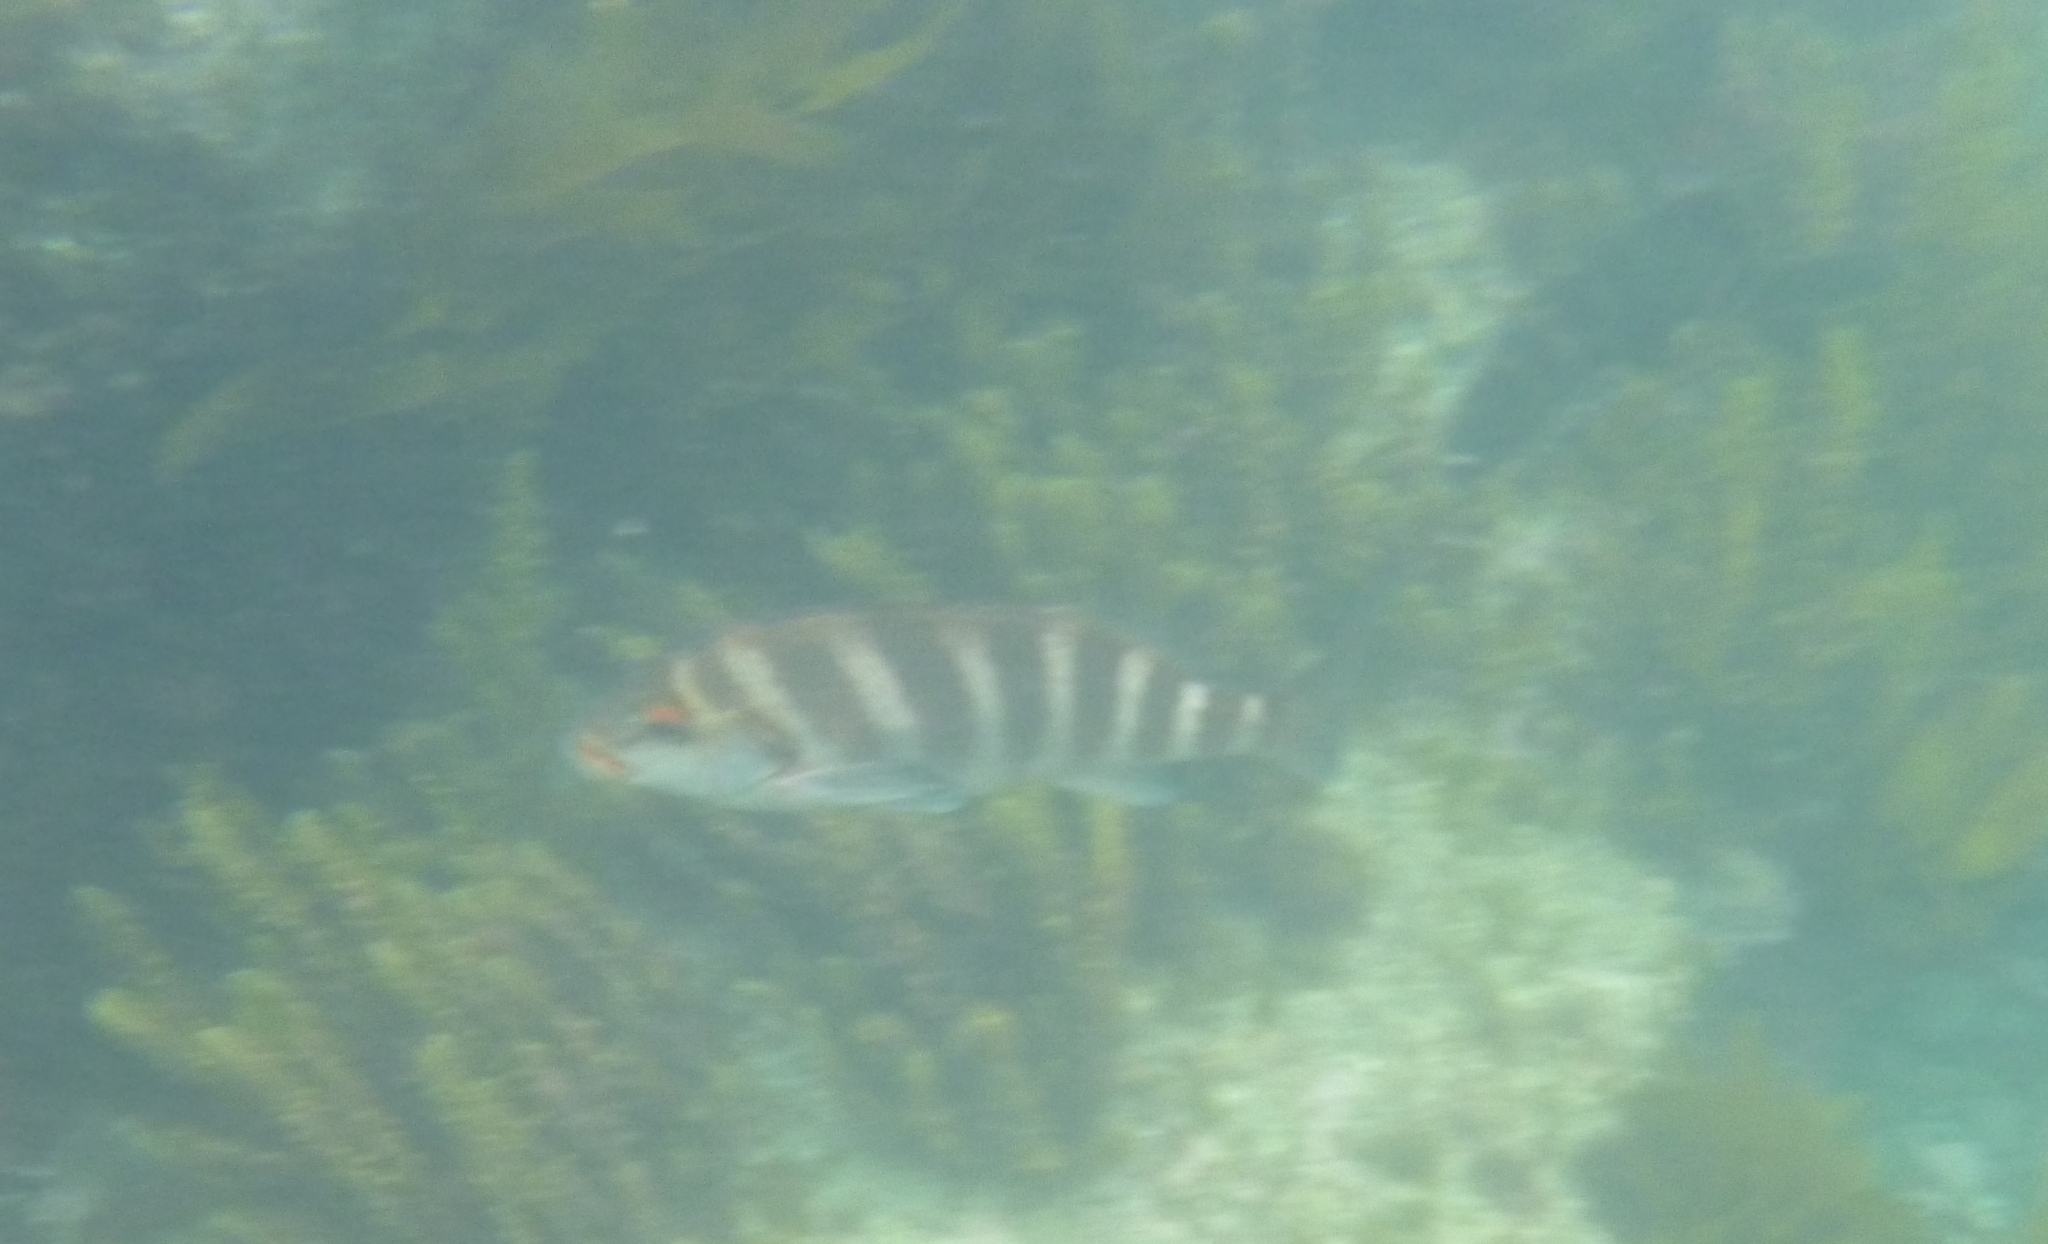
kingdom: Animalia
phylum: Chordata
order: Perciformes
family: Cheilodactylidae
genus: Cheilodactylus
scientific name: Cheilodactylus spectabilis
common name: Red moki
